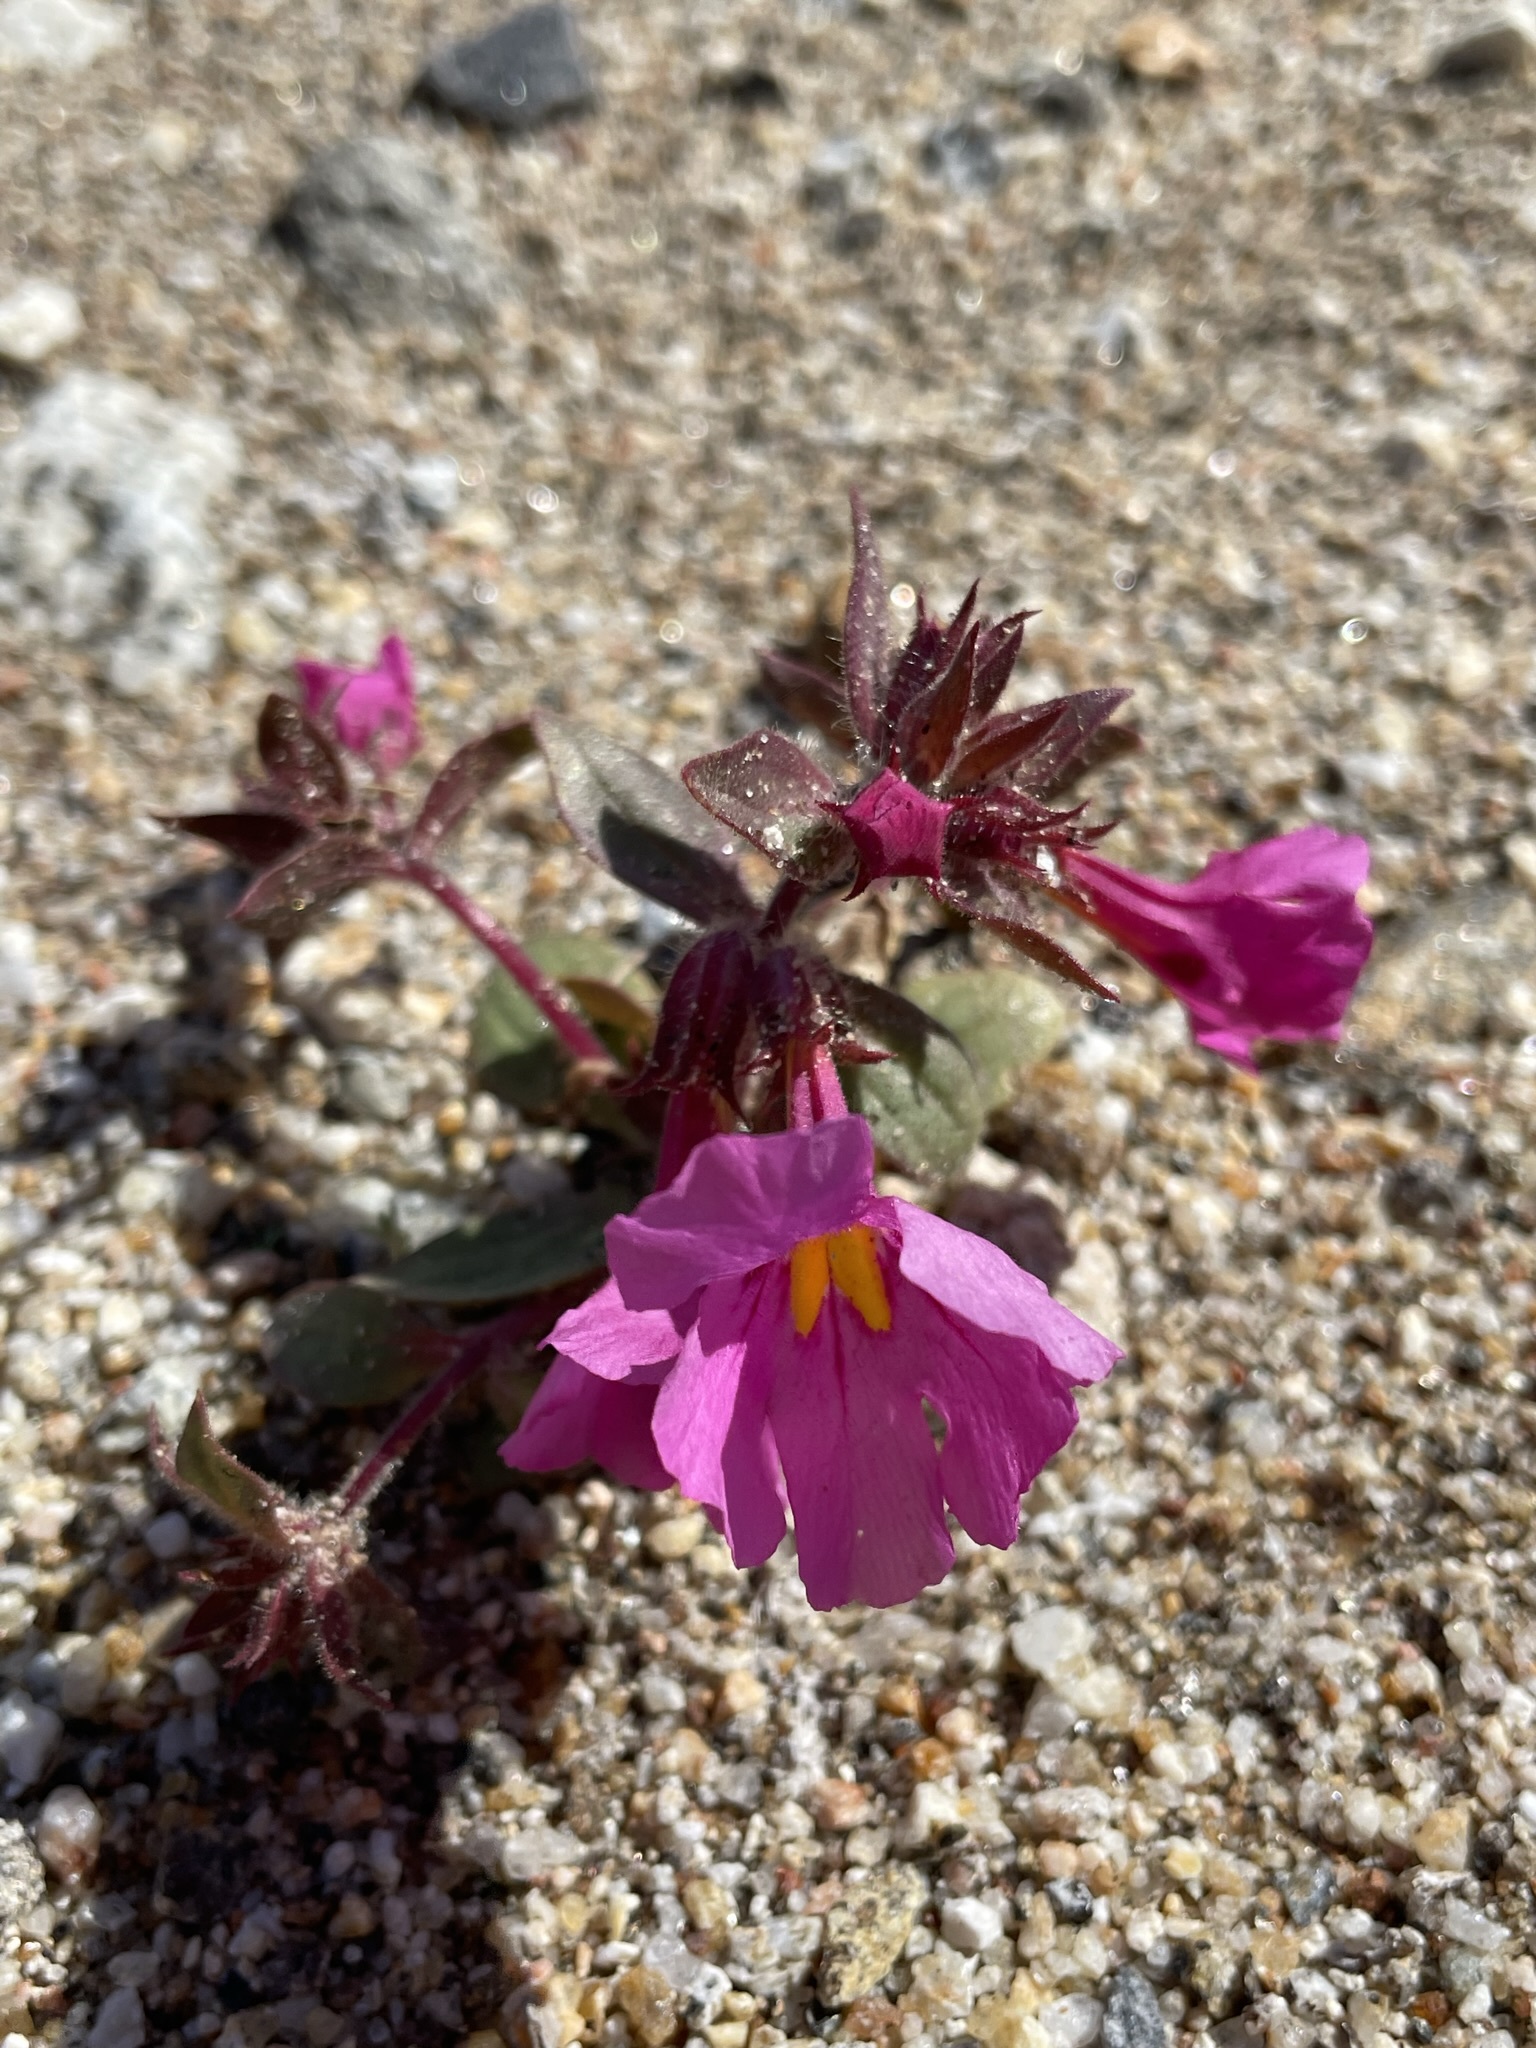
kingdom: Plantae
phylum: Tracheophyta
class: Magnoliopsida
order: Lamiales
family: Phrymaceae
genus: Diplacus
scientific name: Diplacus bigelovii
